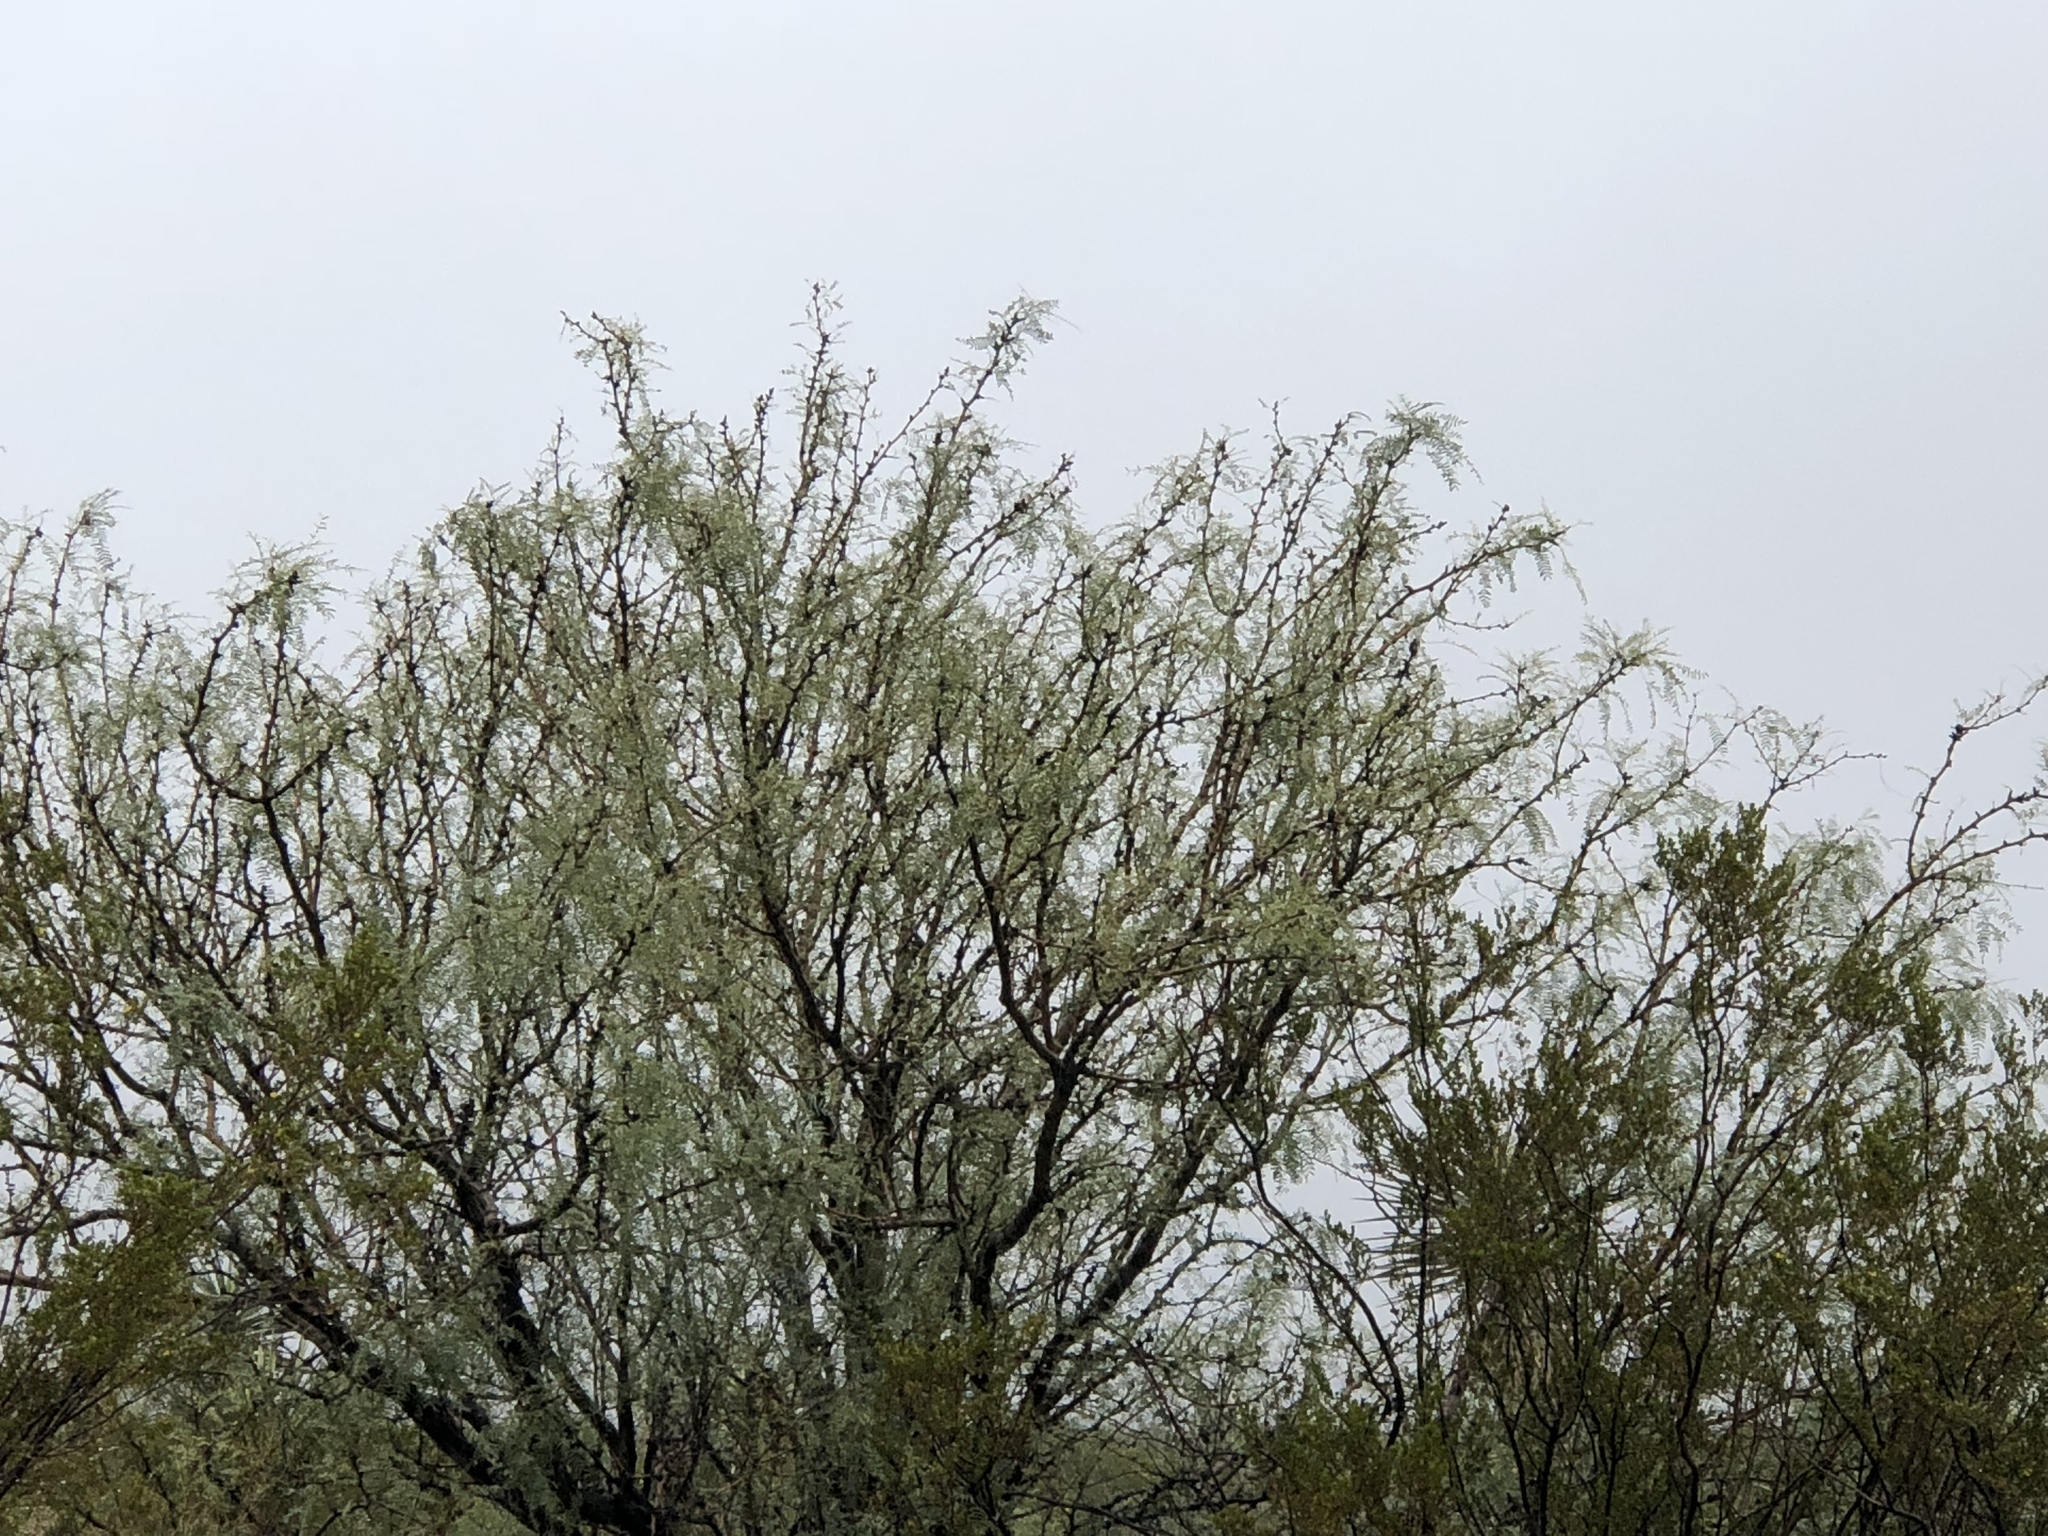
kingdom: Plantae
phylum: Tracheophyta
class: Magnoliopsida
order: Fabales
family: Fabaceae
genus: Prosopis
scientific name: Prosopis glandulosa
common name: Honey mesquite
